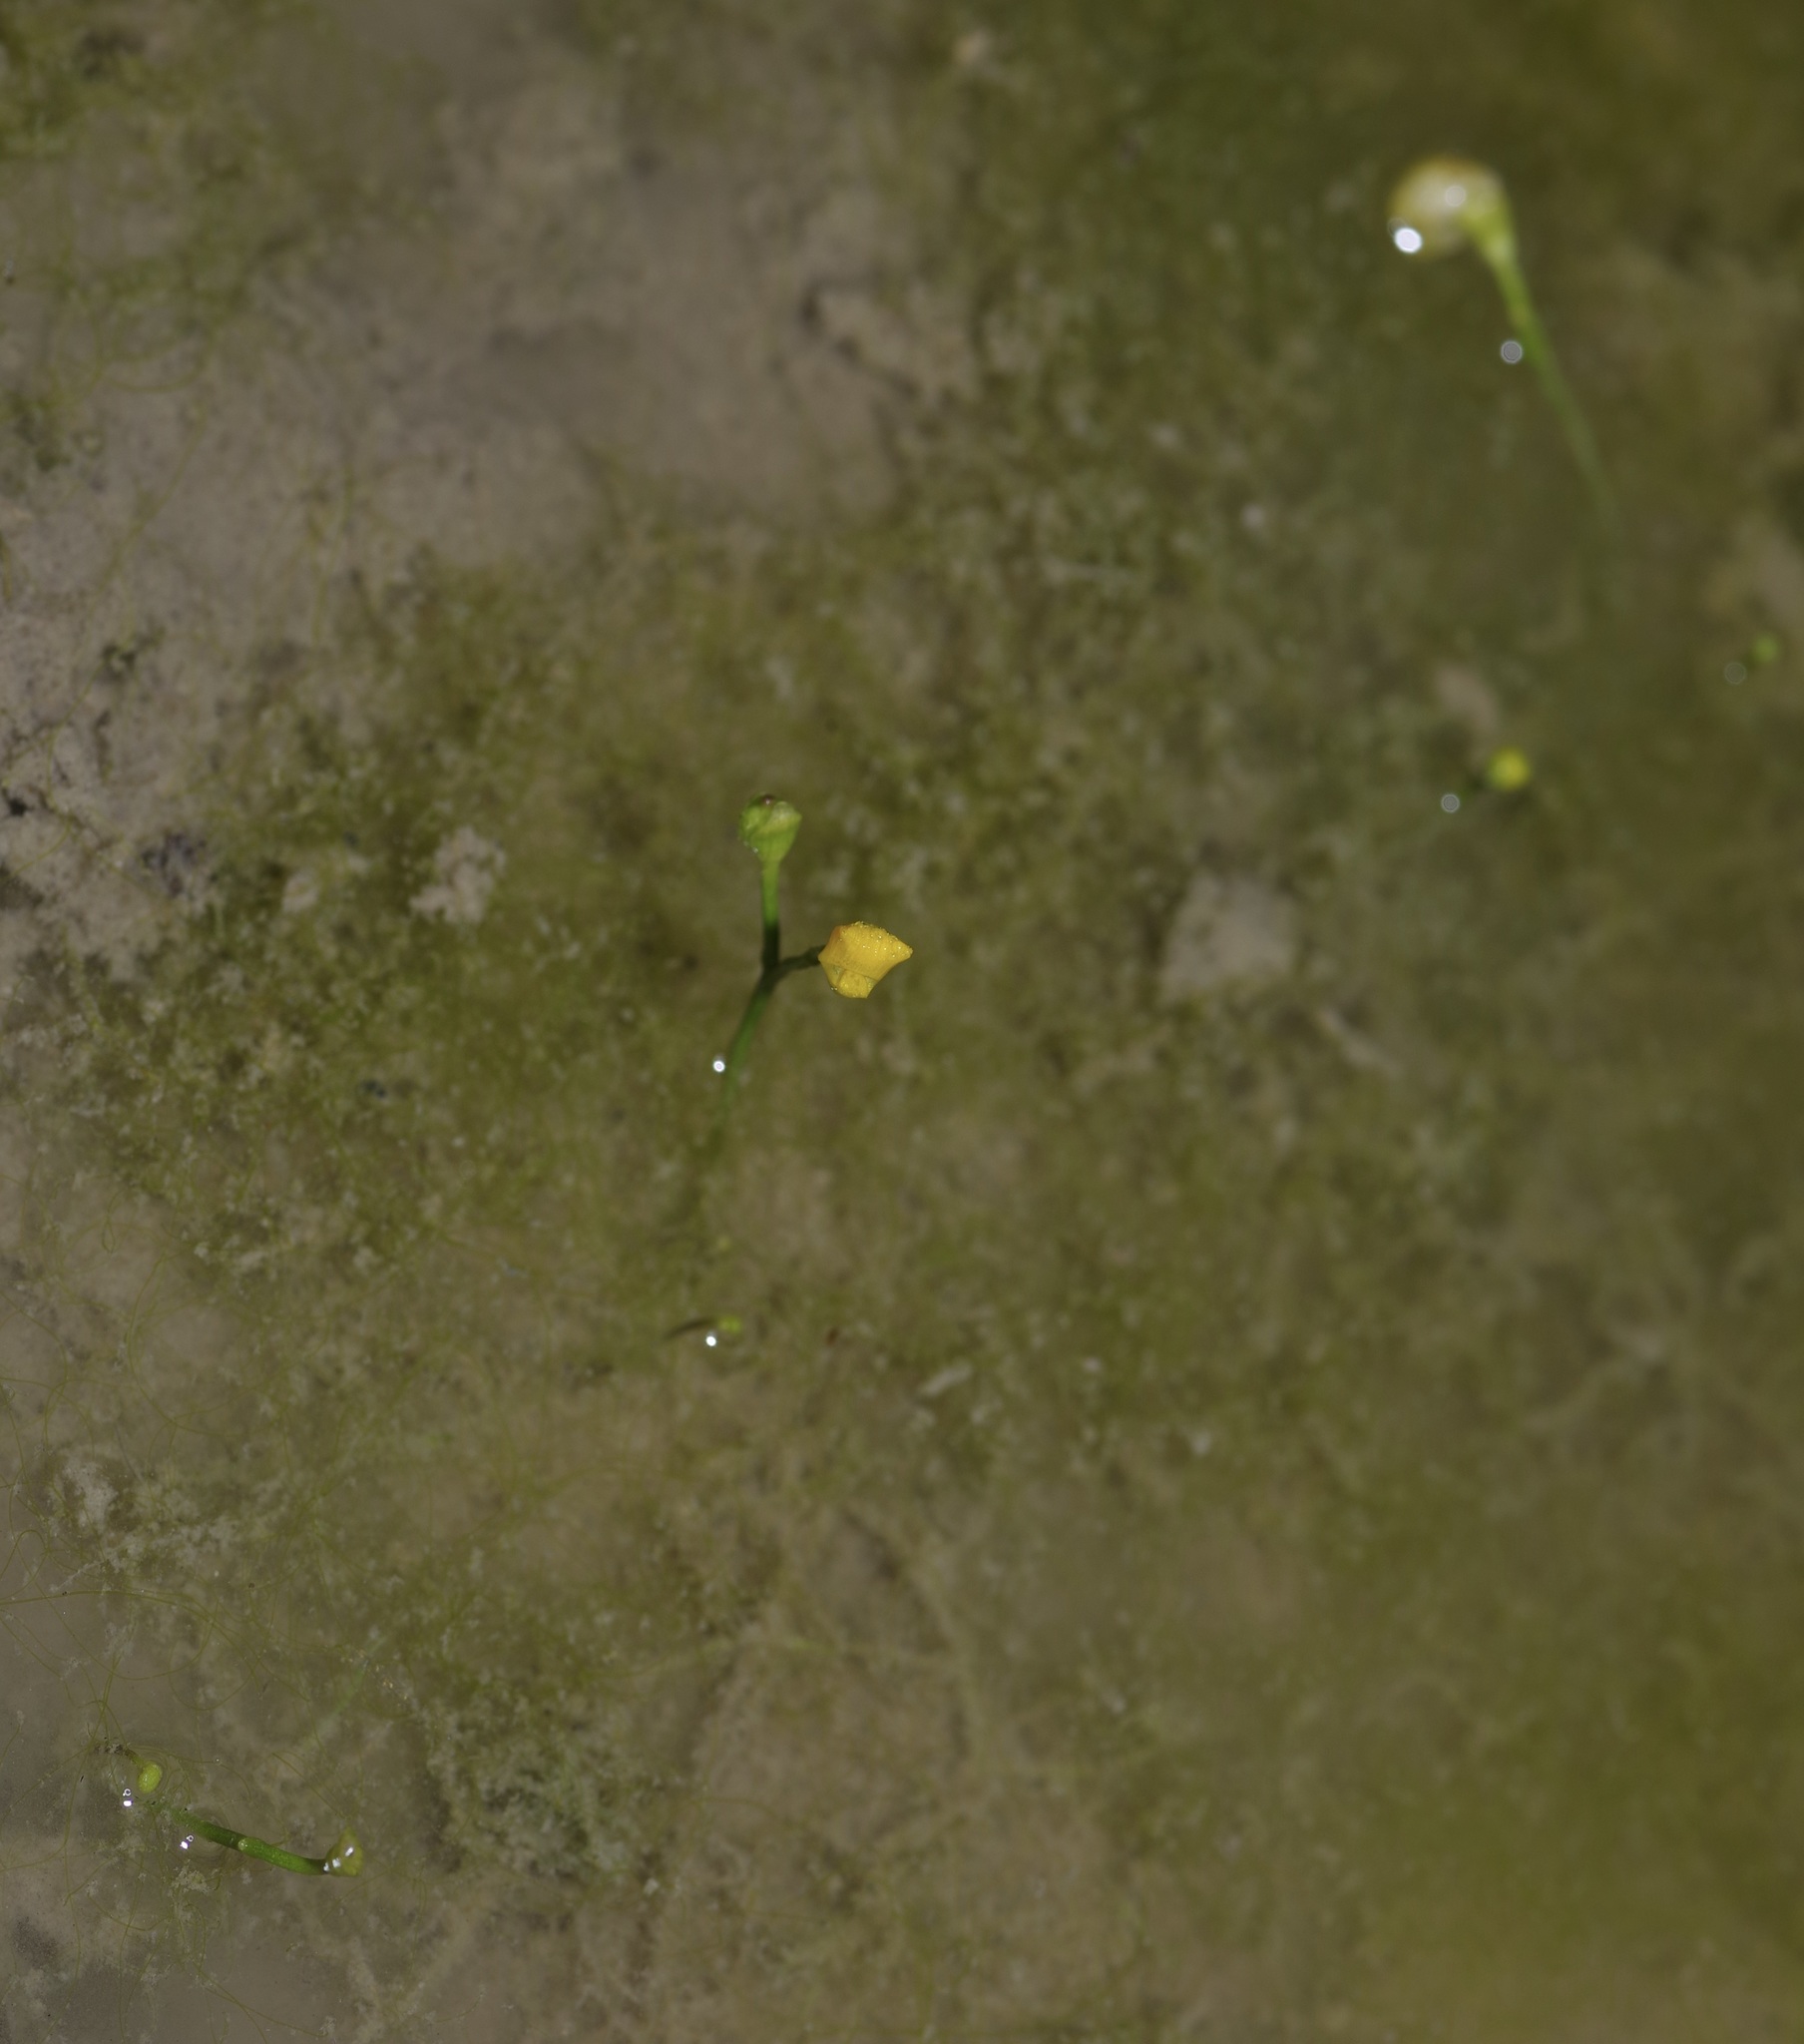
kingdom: Plantae
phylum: Tracheophyta
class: Magnoliopsida
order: Lamiales
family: Lentibulariaceae
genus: Utricularia
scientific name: Utricularia gibba
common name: Humped bladderwort
